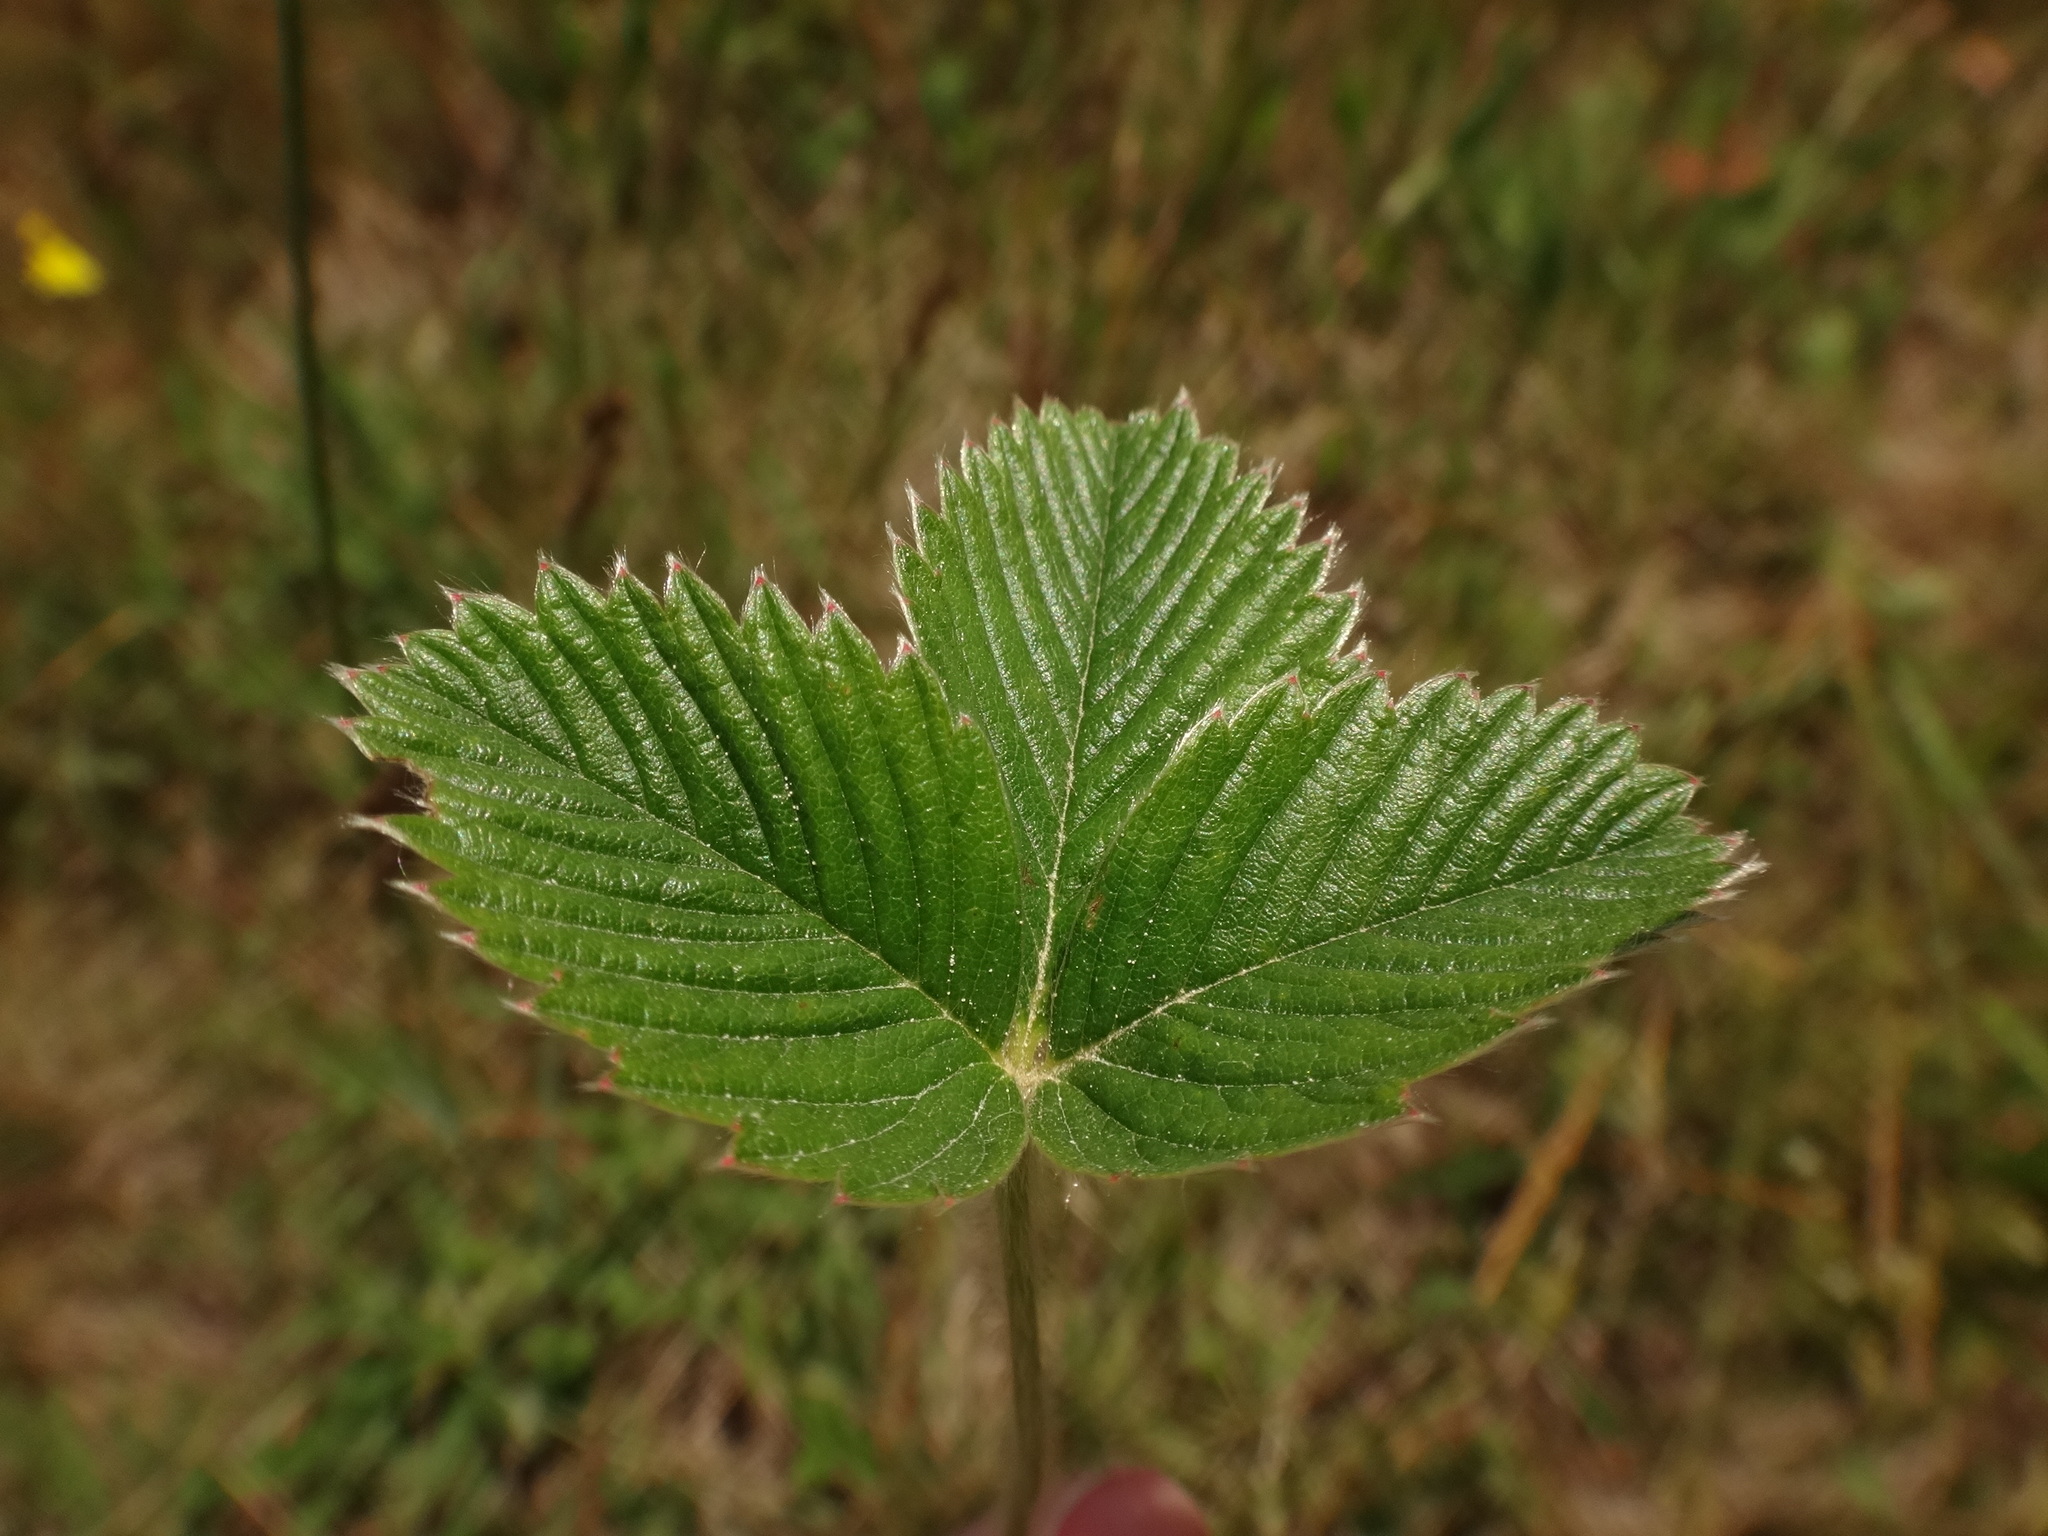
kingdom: Plantae
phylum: Tracheophyta
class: Magnoliopsida
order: Rosales
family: Rosaceae
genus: Fragaria
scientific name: Fragaria viridis
